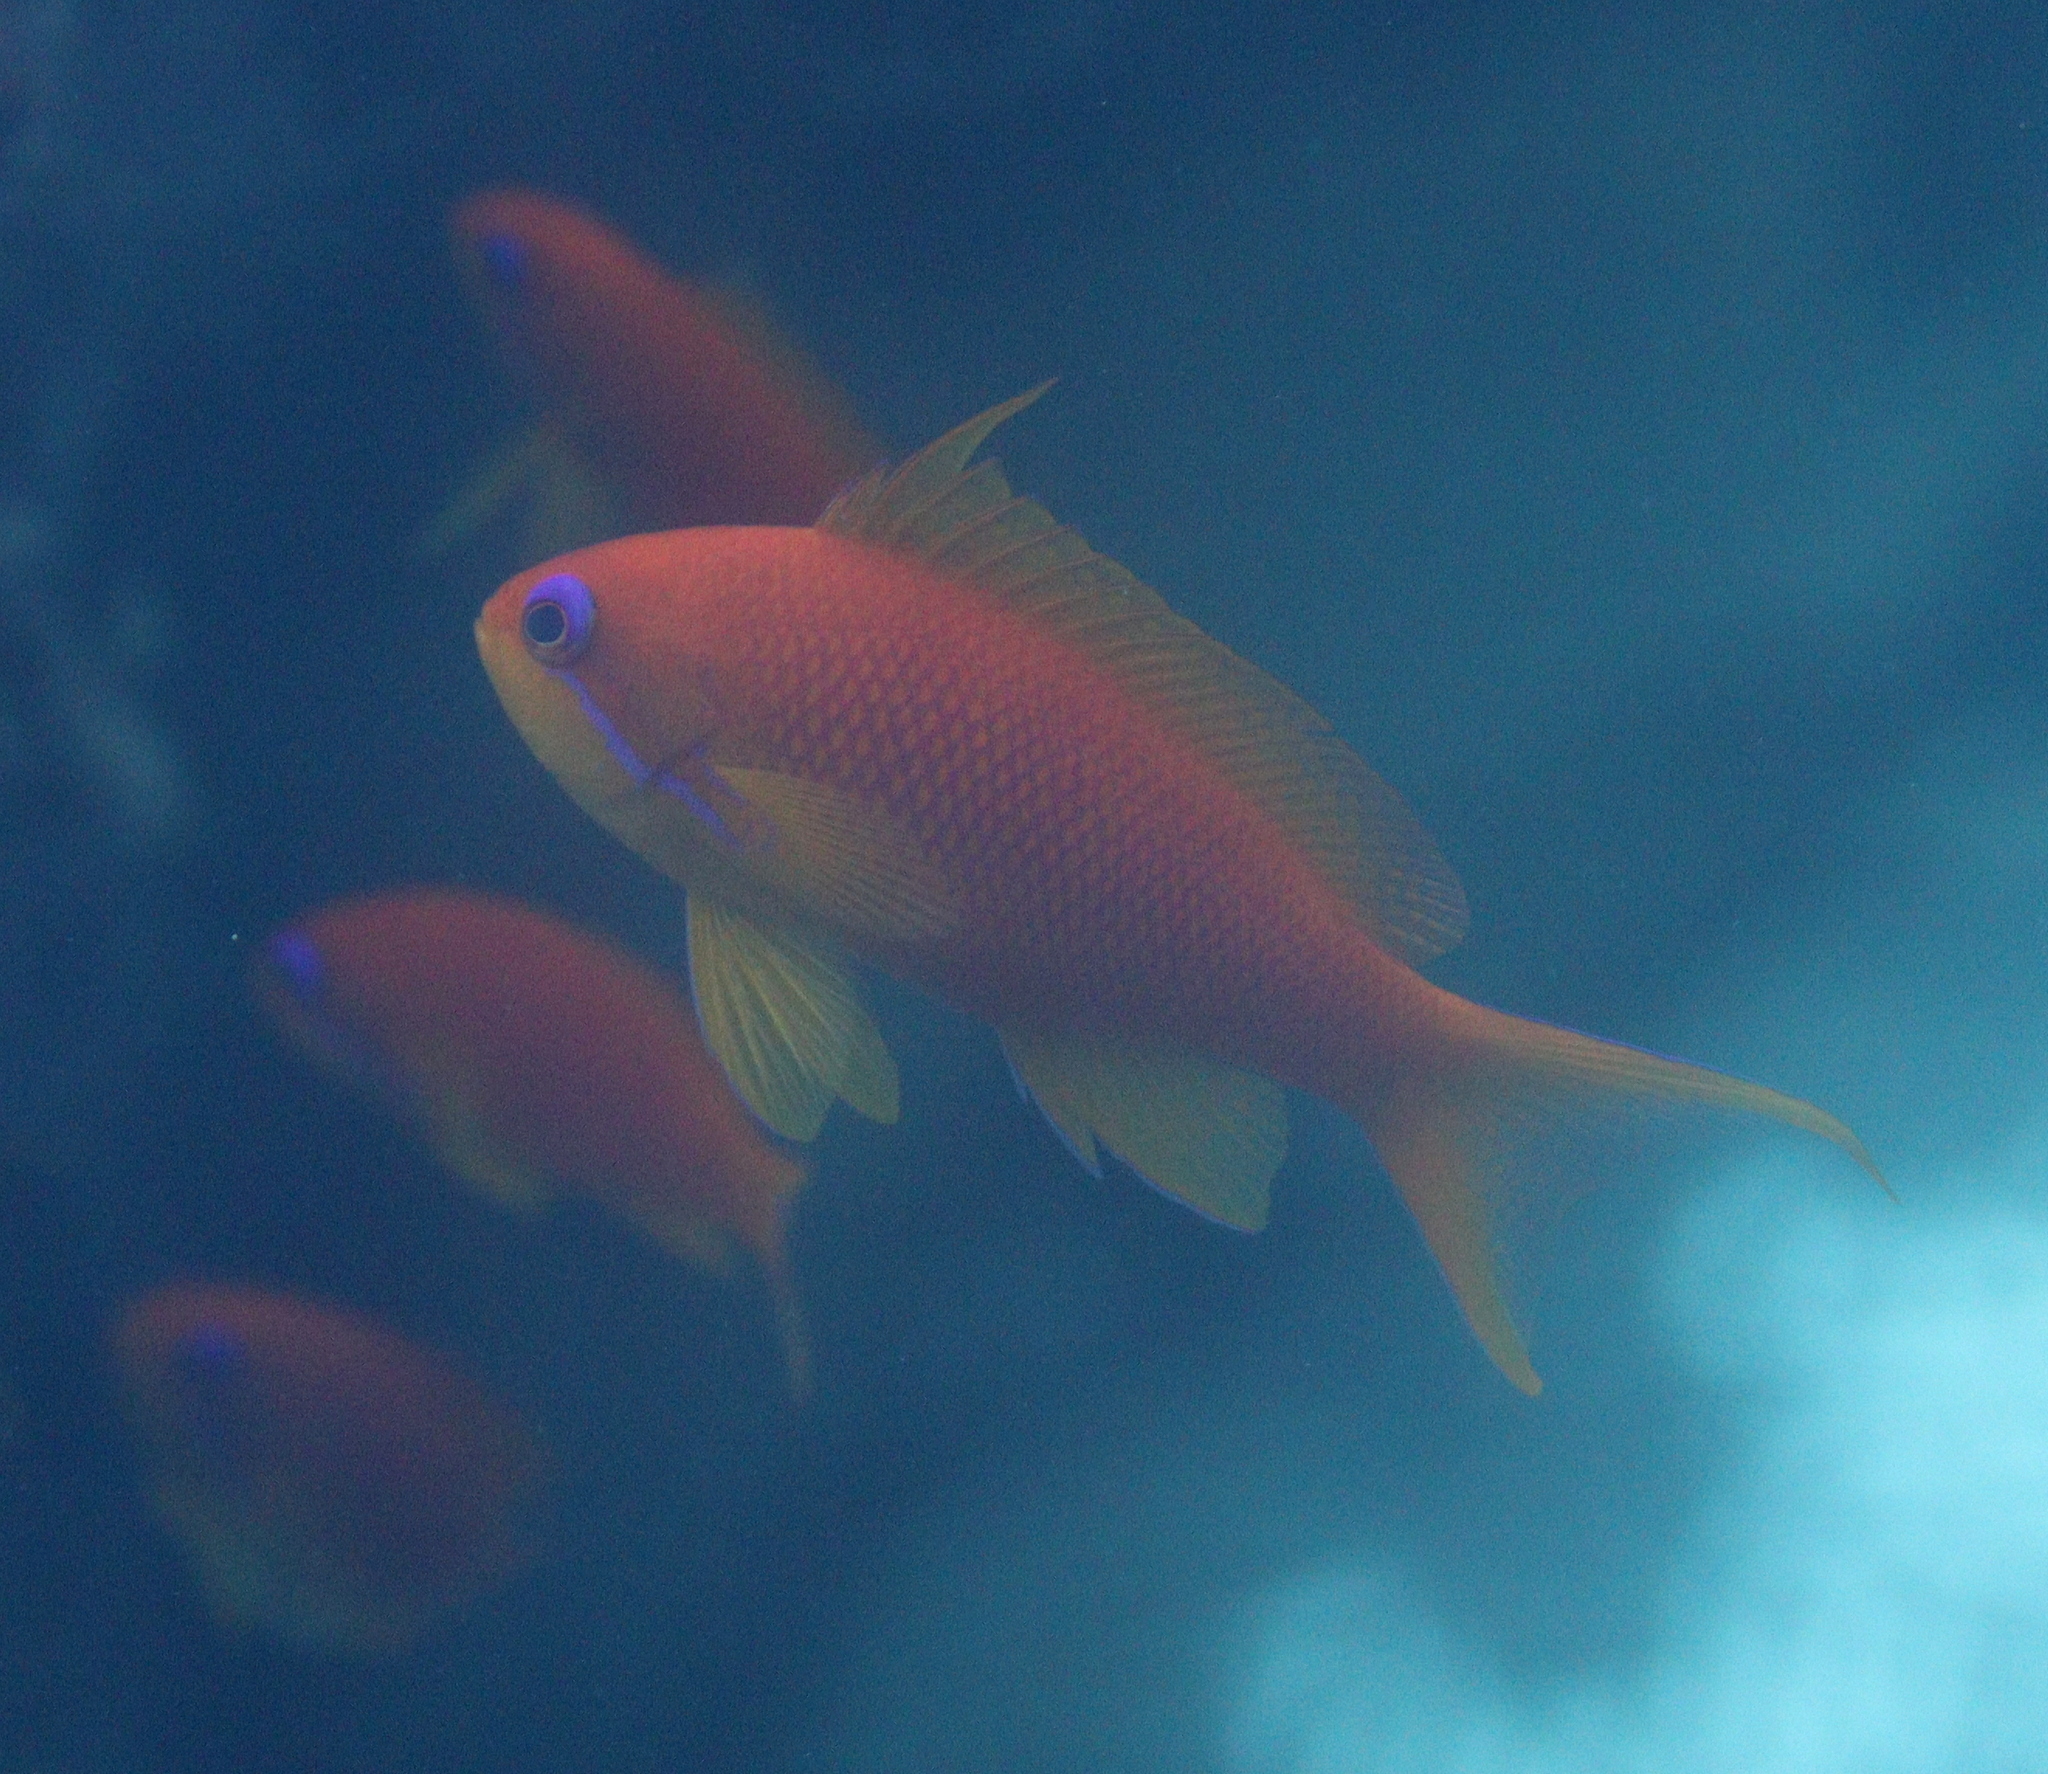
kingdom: Animalia
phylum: Chordata
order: Perciformes
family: Serranidae
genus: Pseudanthias
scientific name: Pseudanthias squamipinnis
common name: Scalefin anthias
